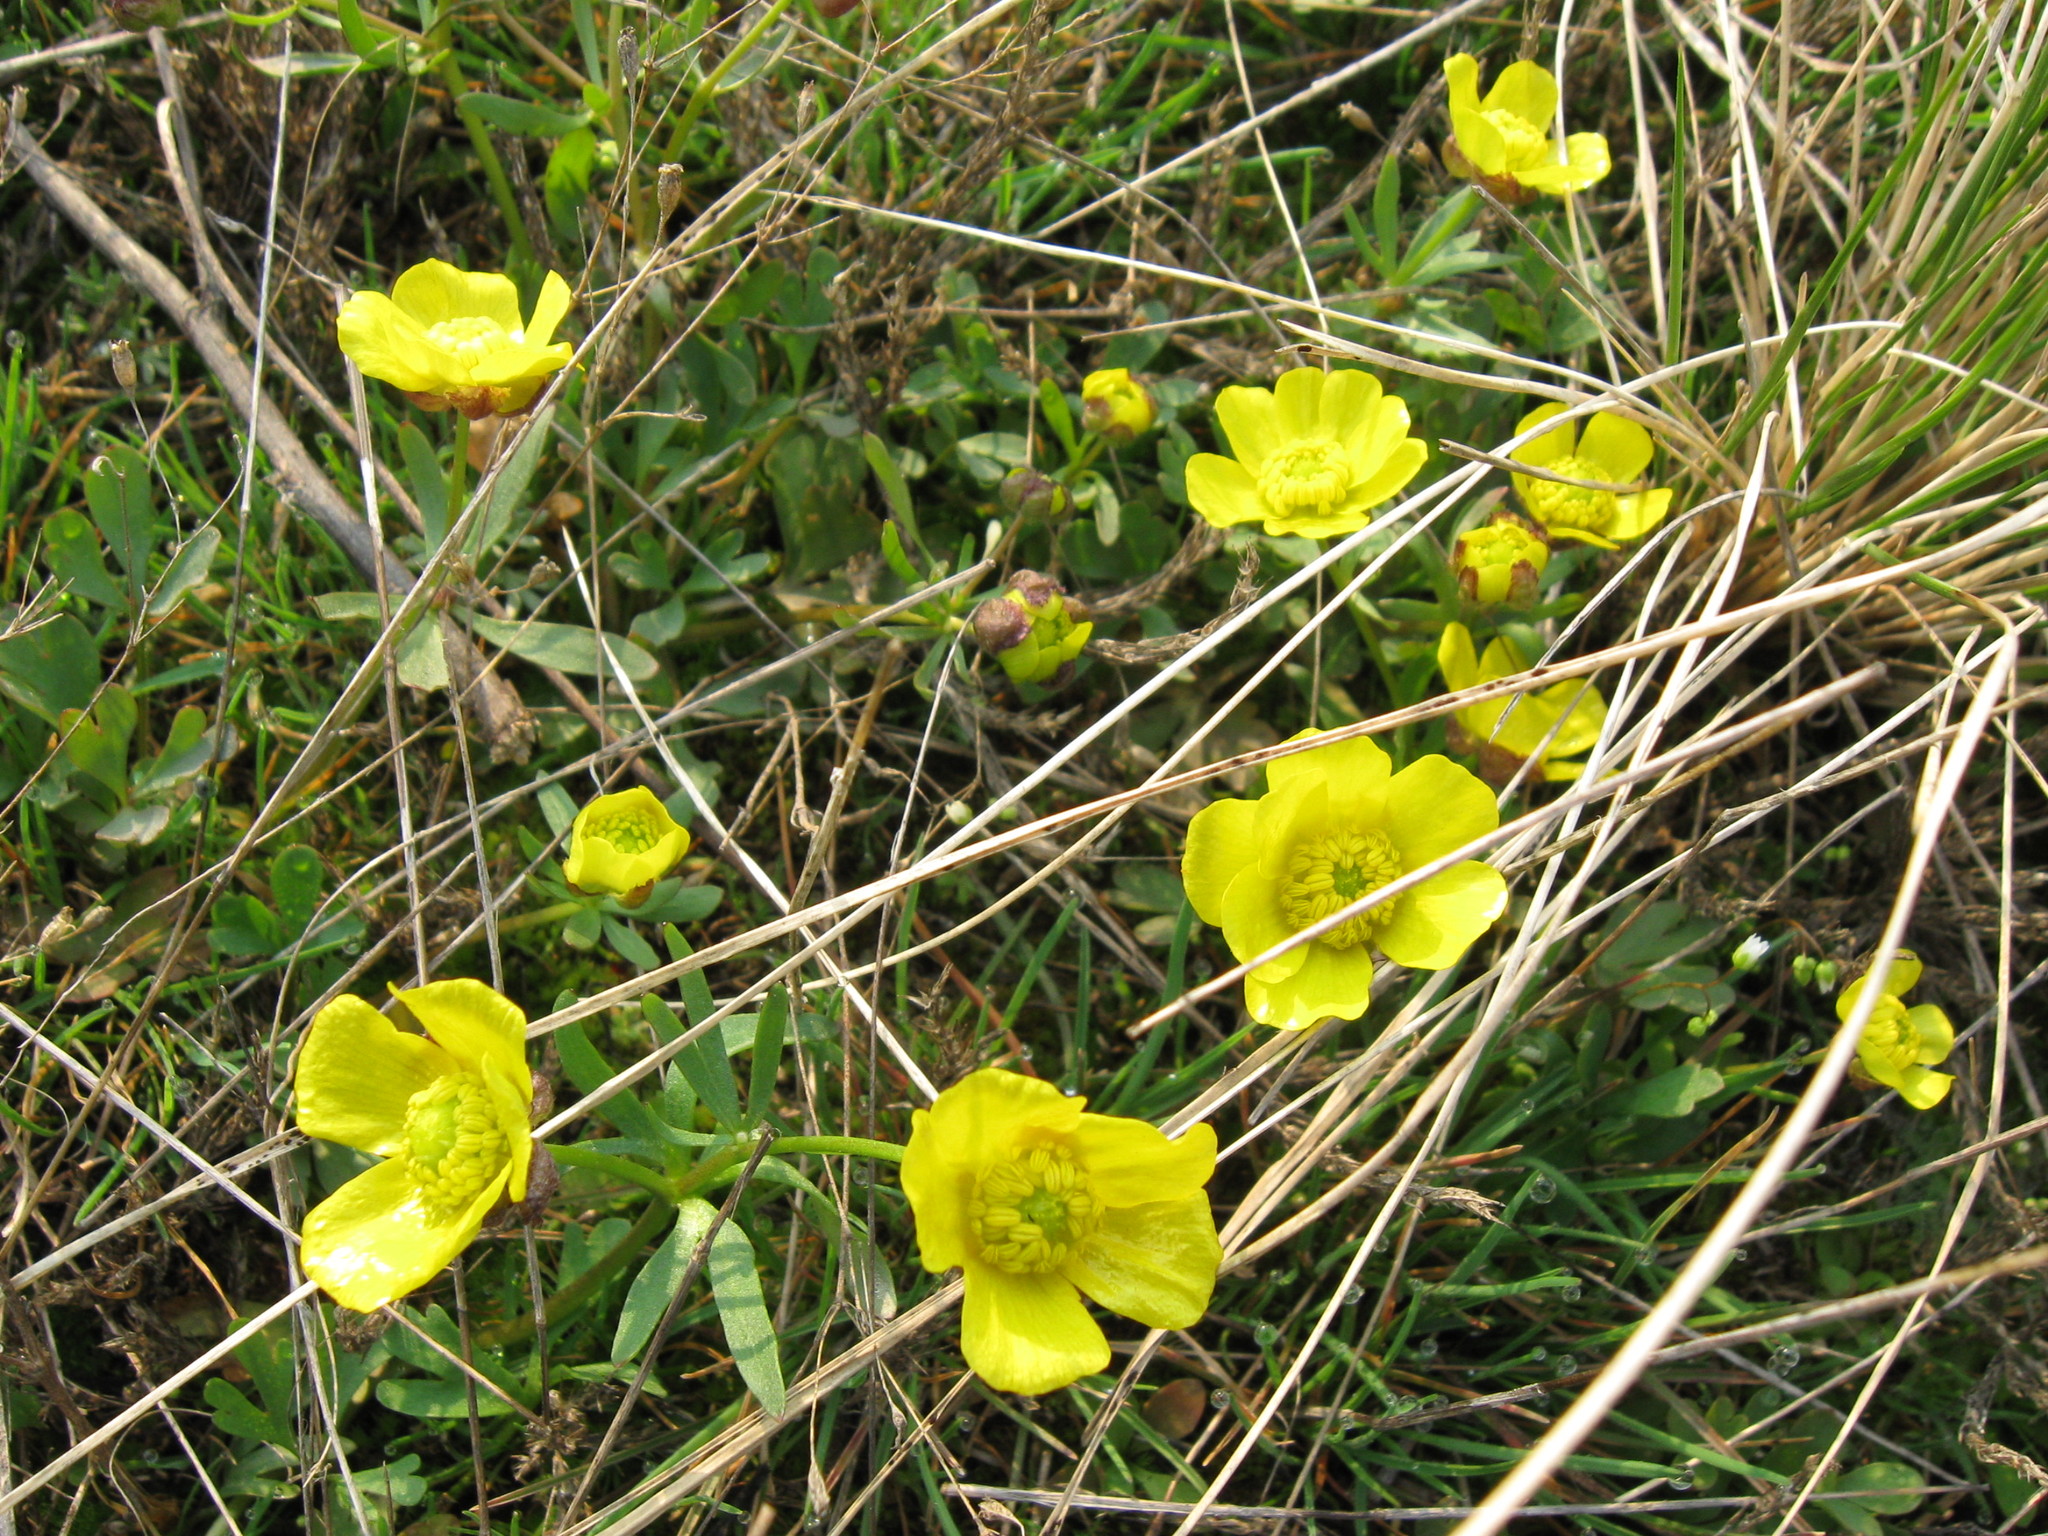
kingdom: Plantae
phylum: Tracheophyta
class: Magnoliopsida
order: Ranunculales
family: Ranunculaceae
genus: Ranunculus
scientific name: Ranunculus polyrhizos
